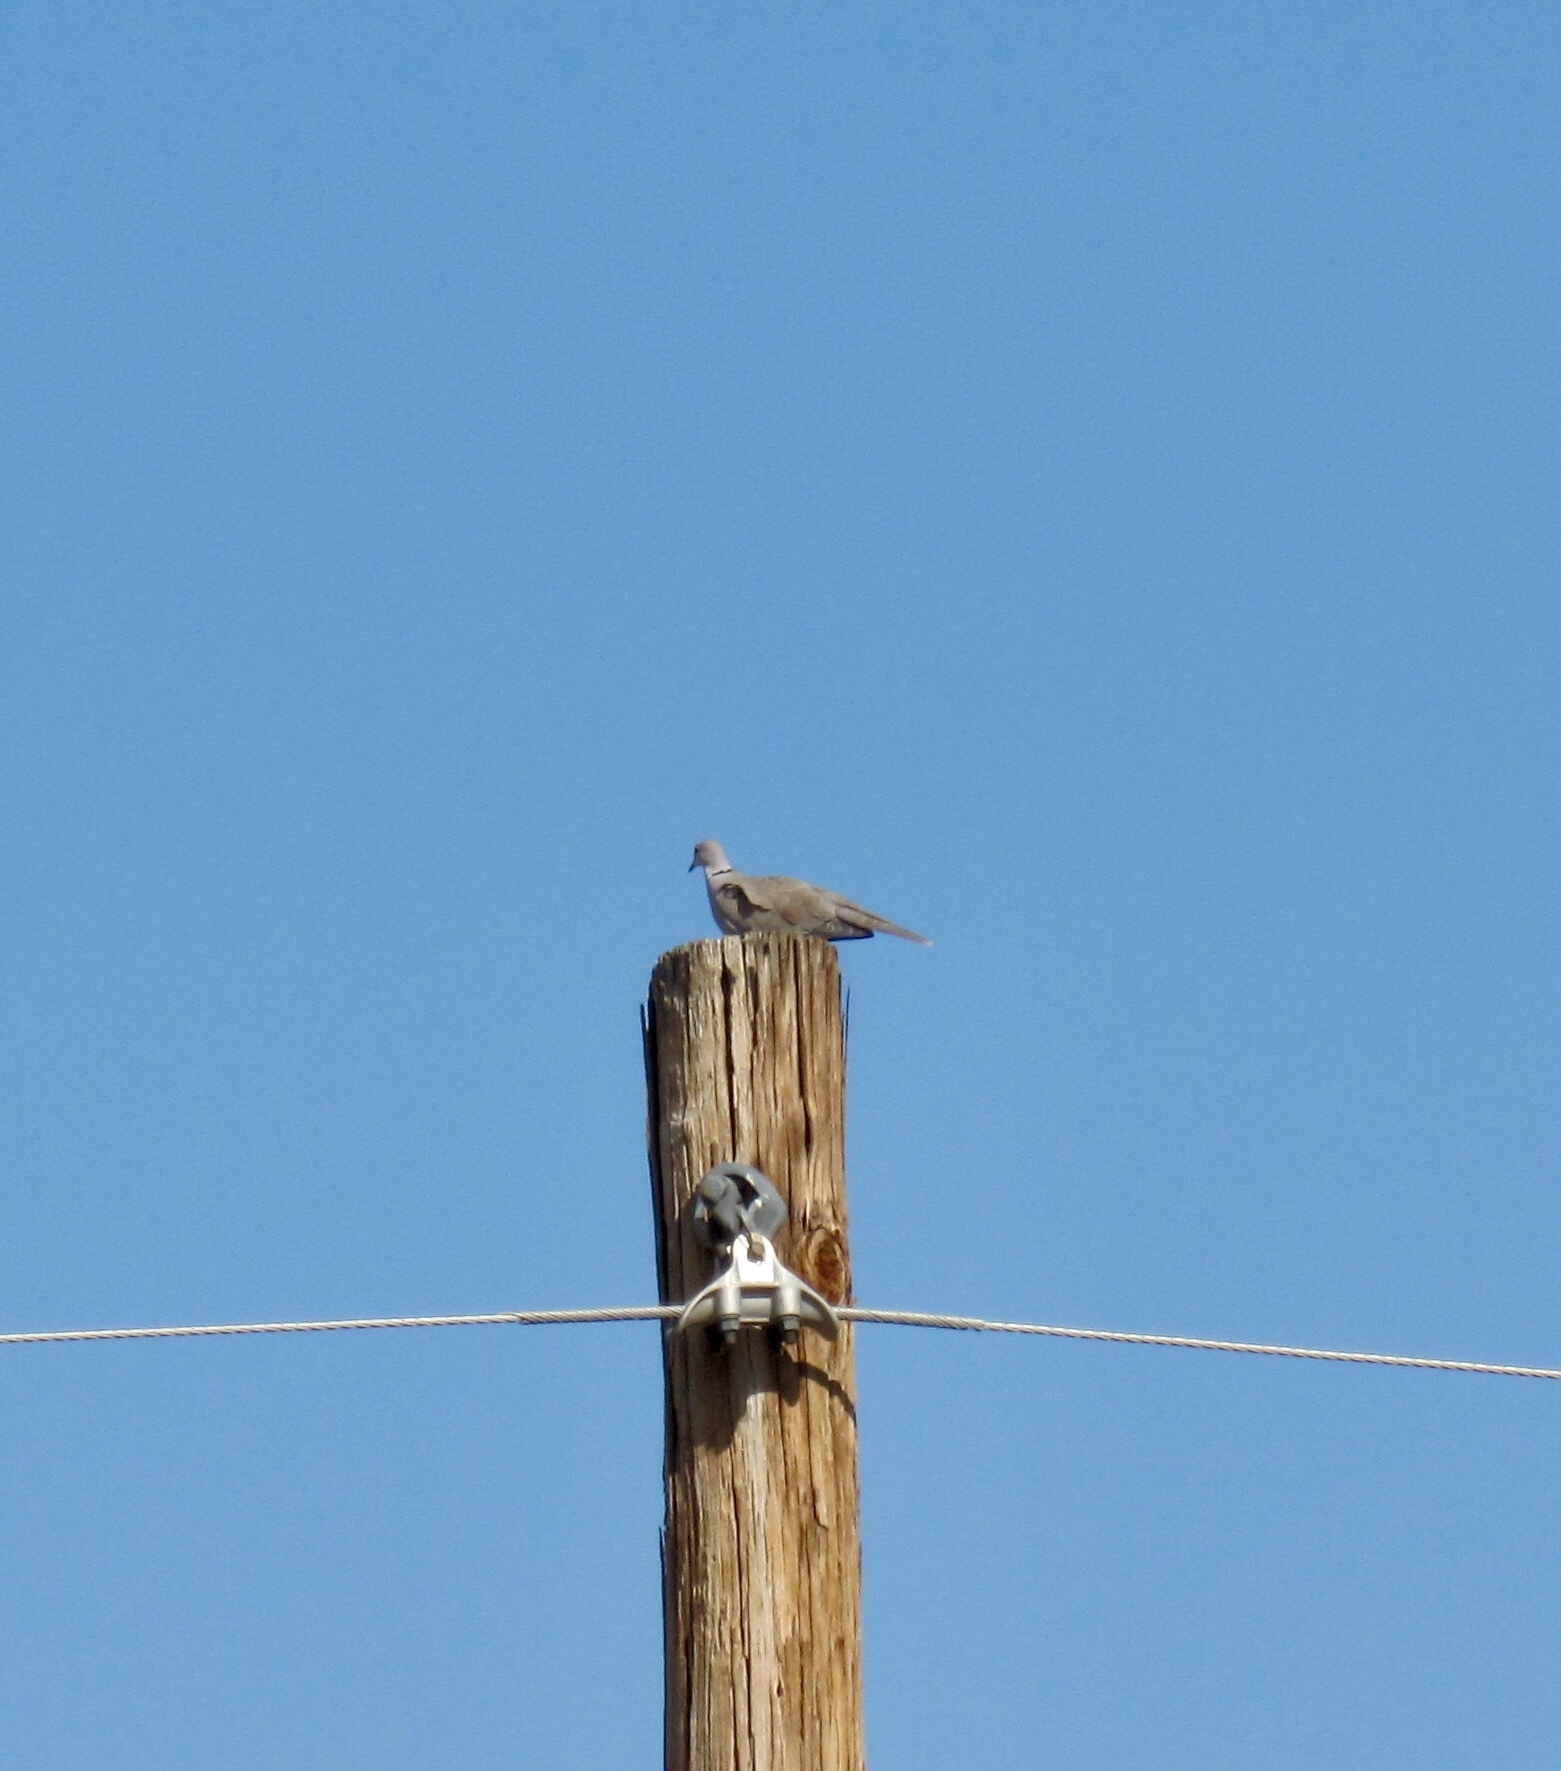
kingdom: Animalia
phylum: Chordata
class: Aves
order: Columbiformes
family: Columbidae
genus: Streptopelia
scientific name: Streptopelia decaocto
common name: Eurasian collared dove
